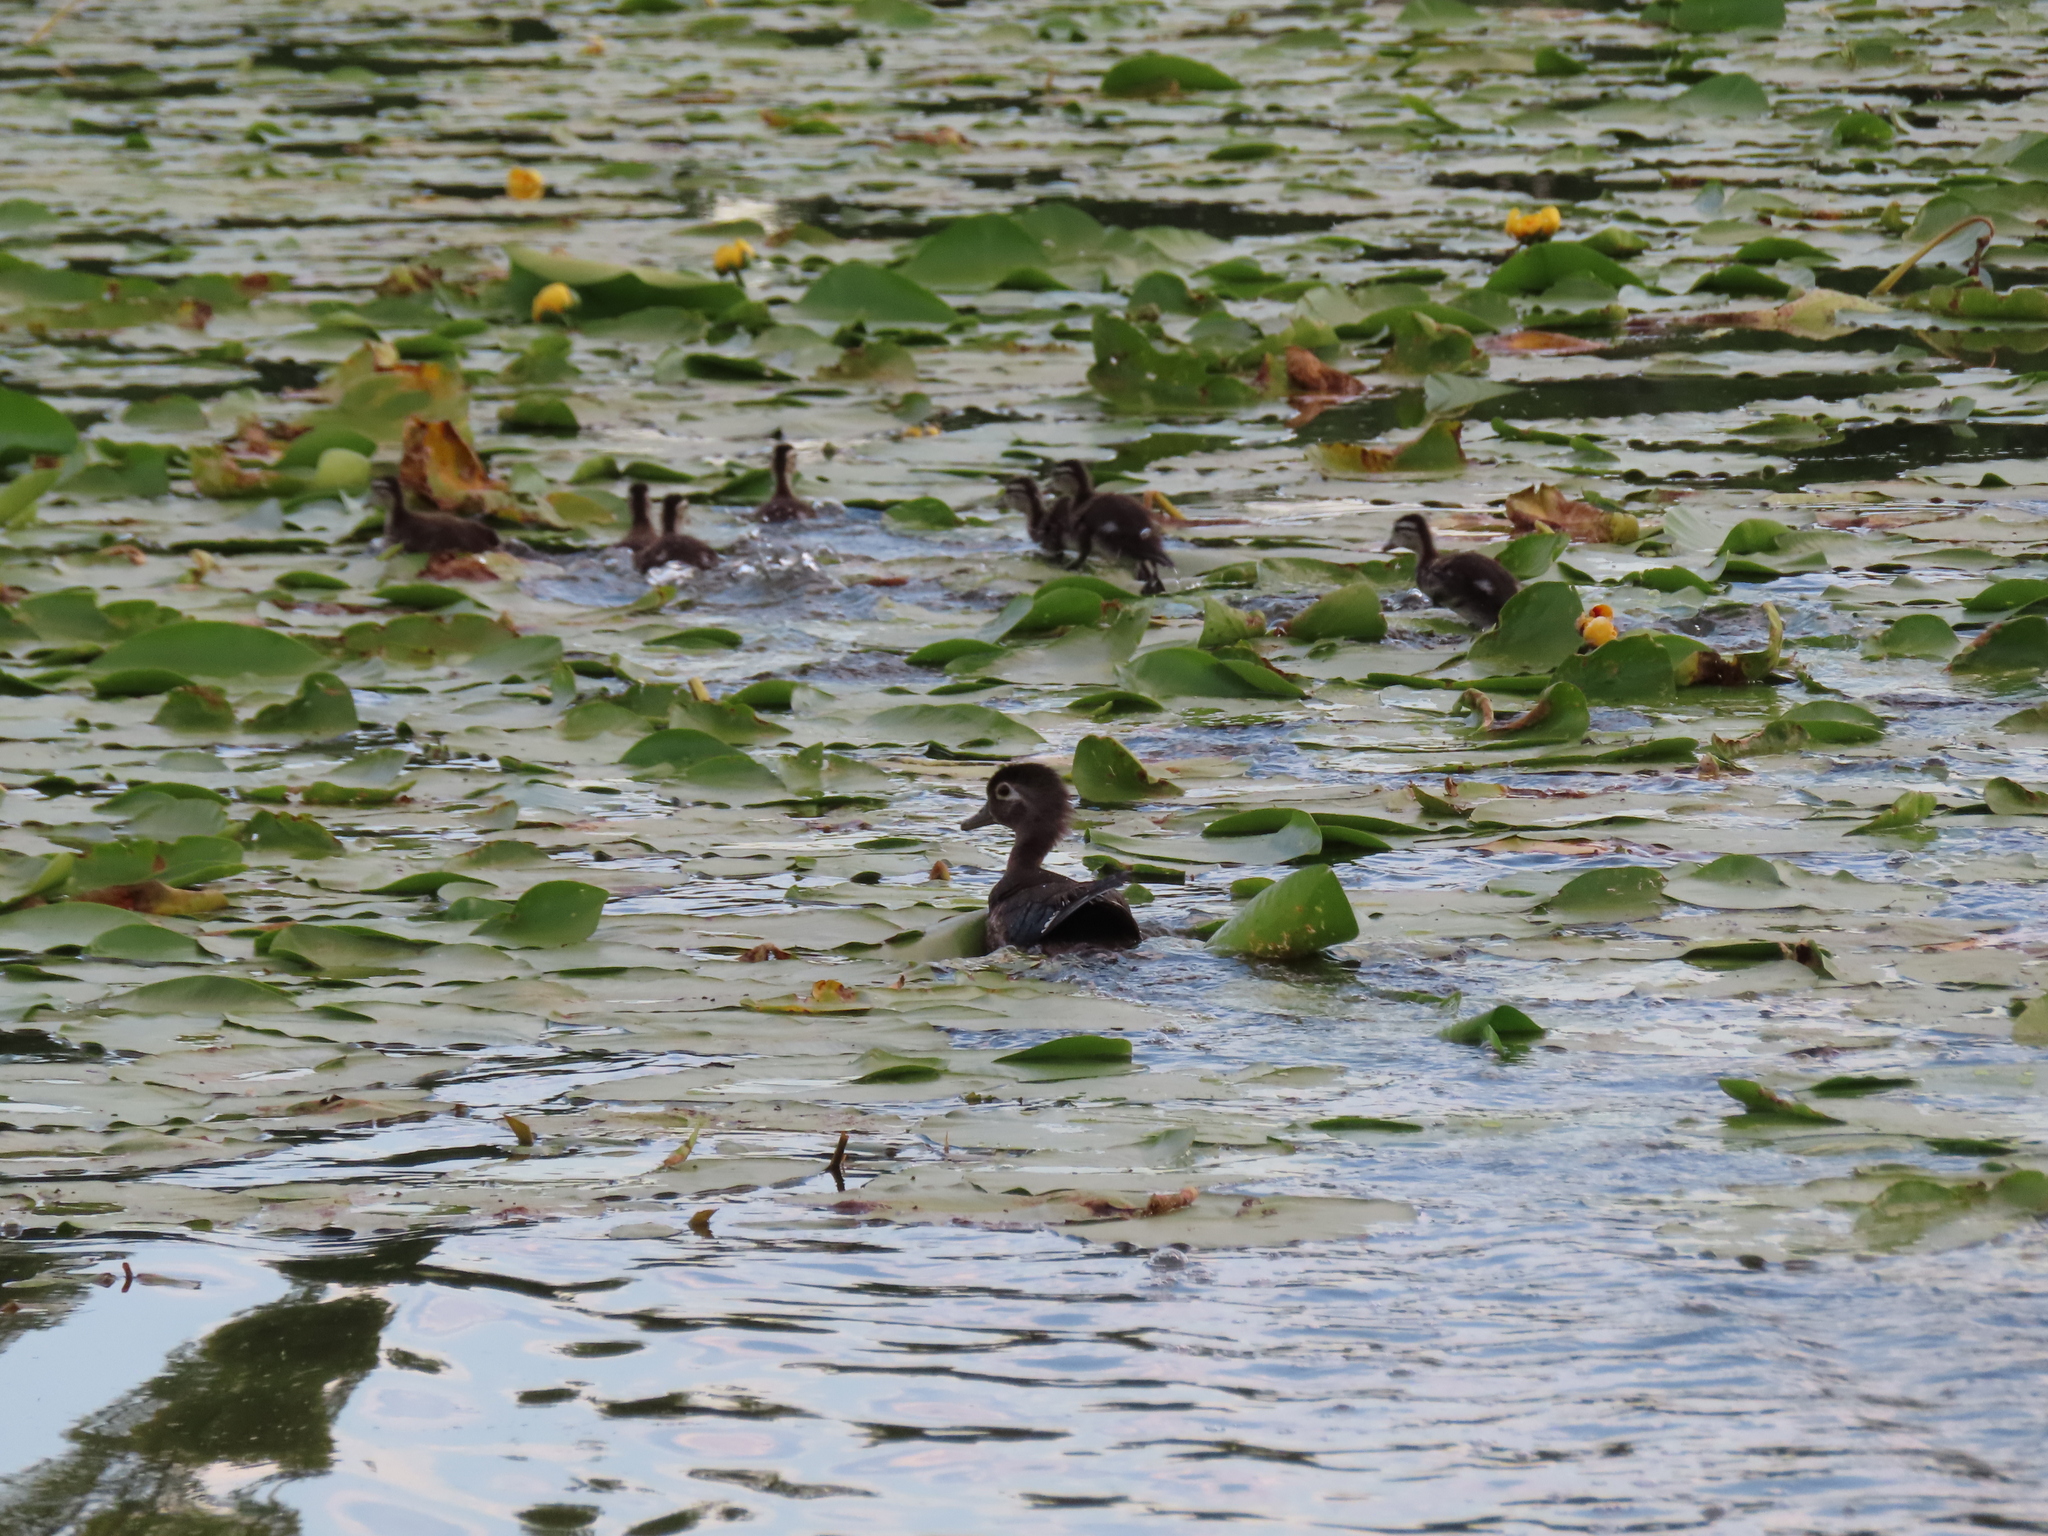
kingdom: Animalia
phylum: Chordata
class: Aves
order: Anseriformes
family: Anatidae
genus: Aix
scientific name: Aix sponsa
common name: Wood duck
